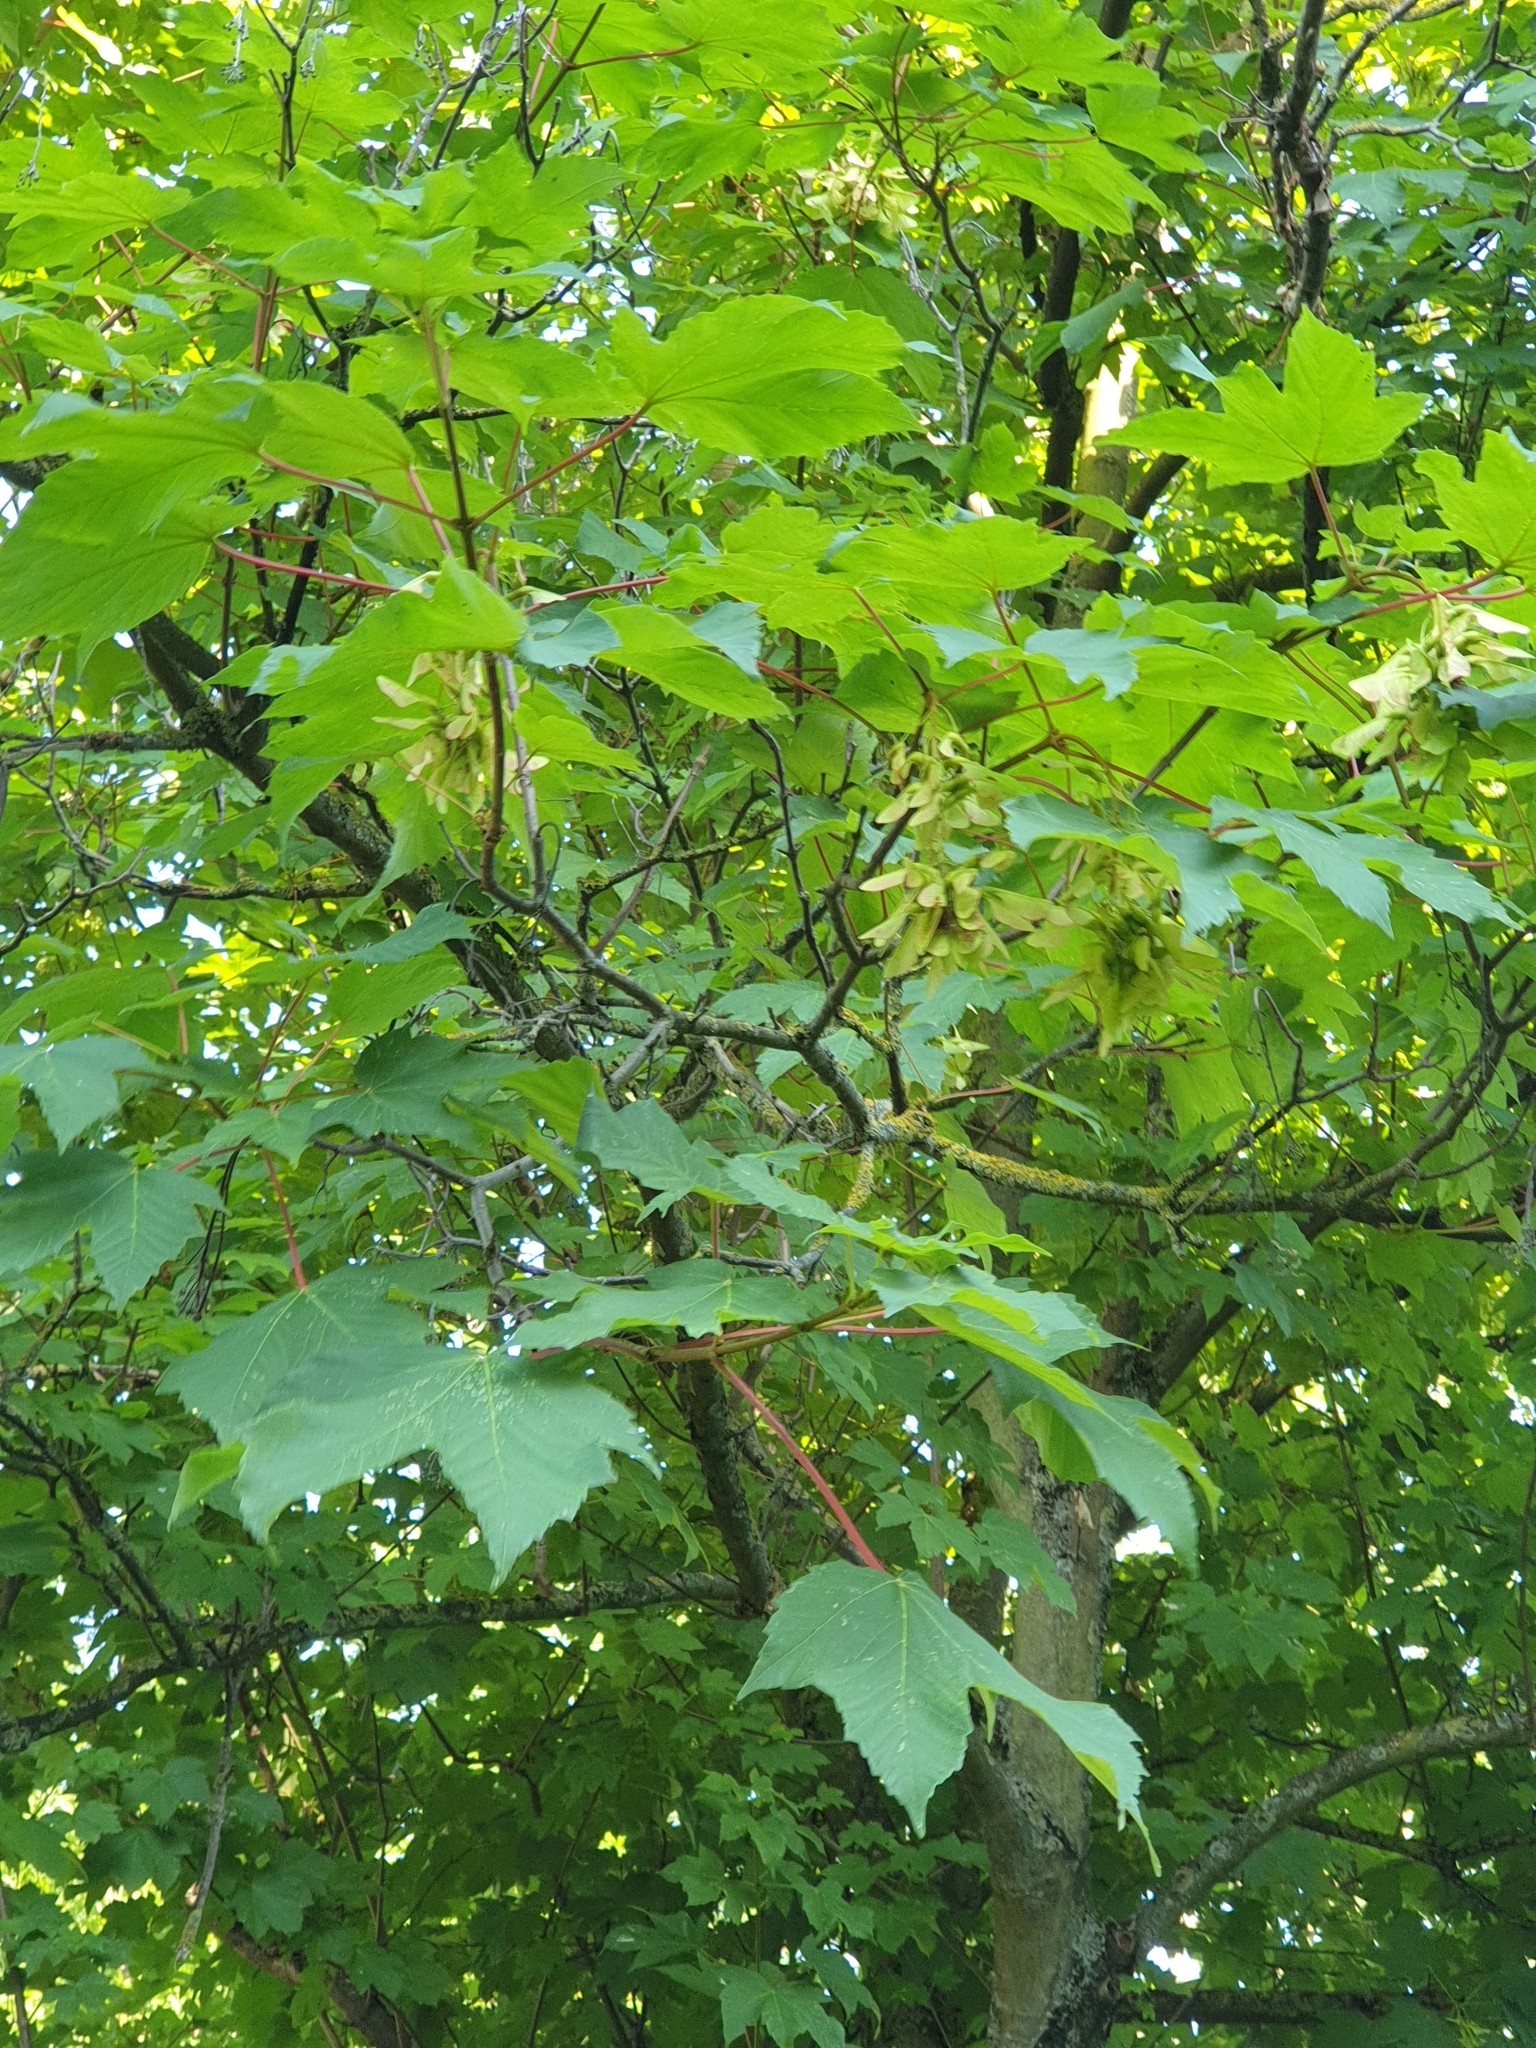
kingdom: Plantae
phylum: Tracheophyta
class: Magnoliopsida
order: Sapindales
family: Sapindaceae
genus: Acer
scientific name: Acer pseudoplatanus
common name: Sycamore
